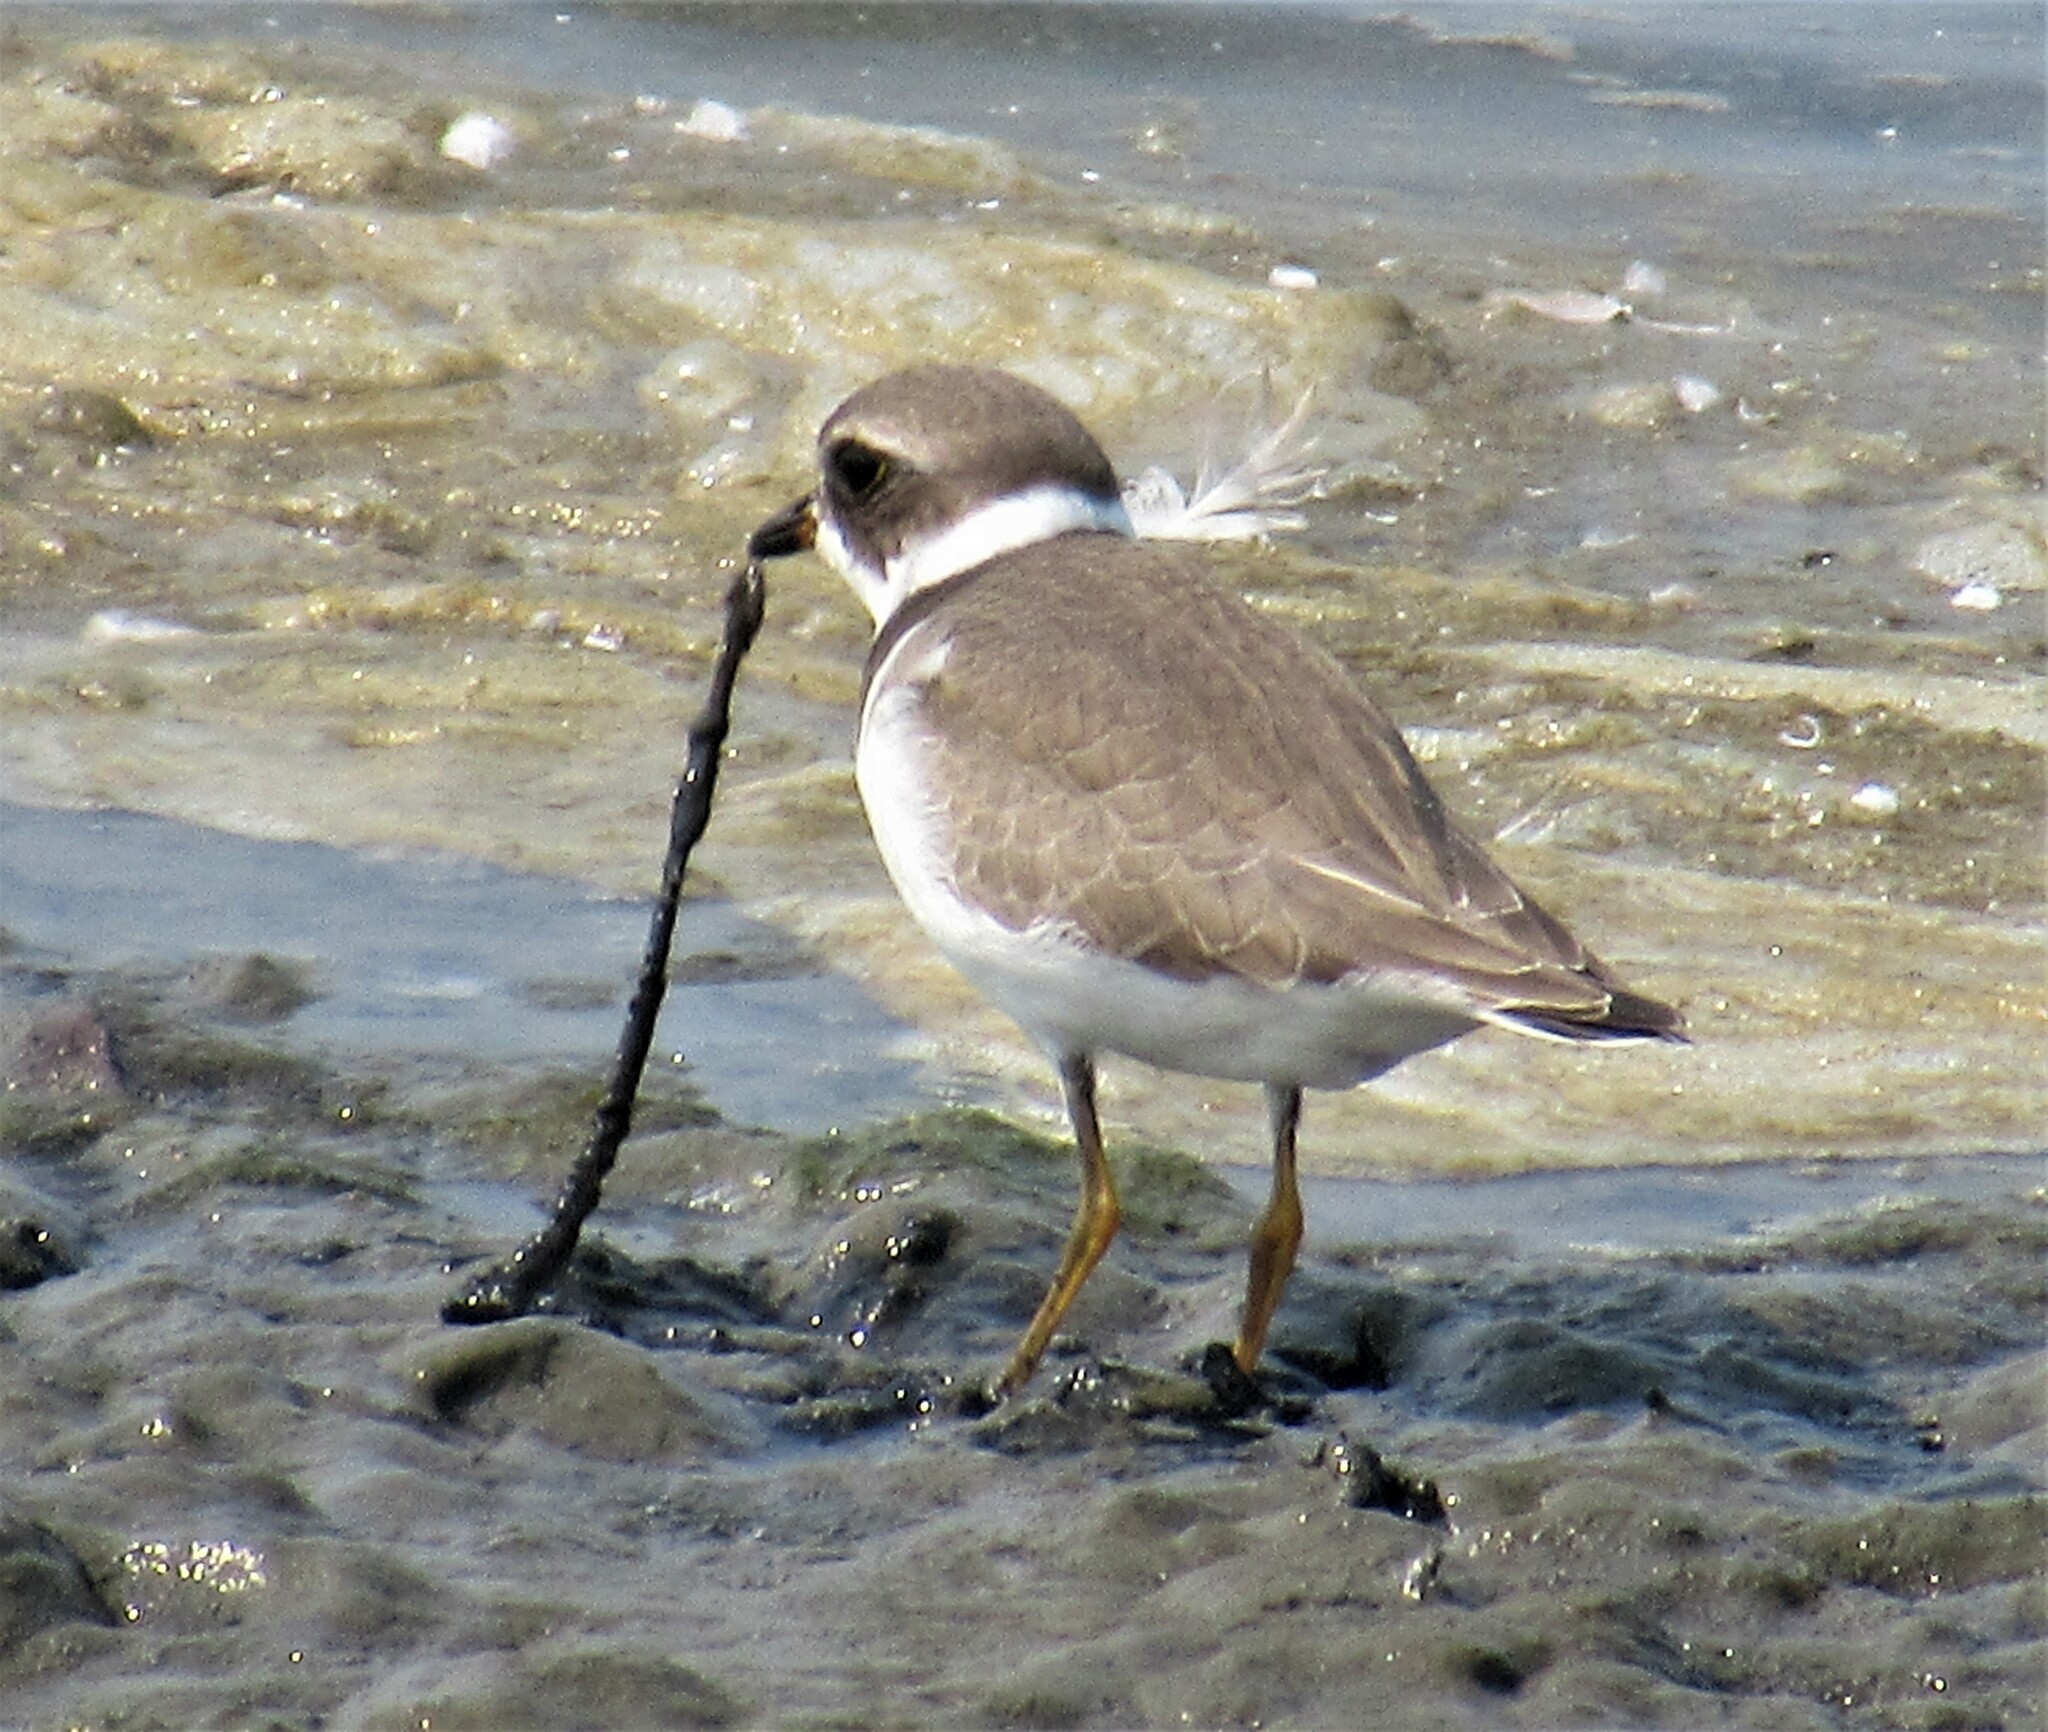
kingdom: Animalia
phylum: Chordata
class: Aves
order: Charadriiformes
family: Charadriidae
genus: Charadrius
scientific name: Charadrius semipalmatus
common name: Semipalmated plover
